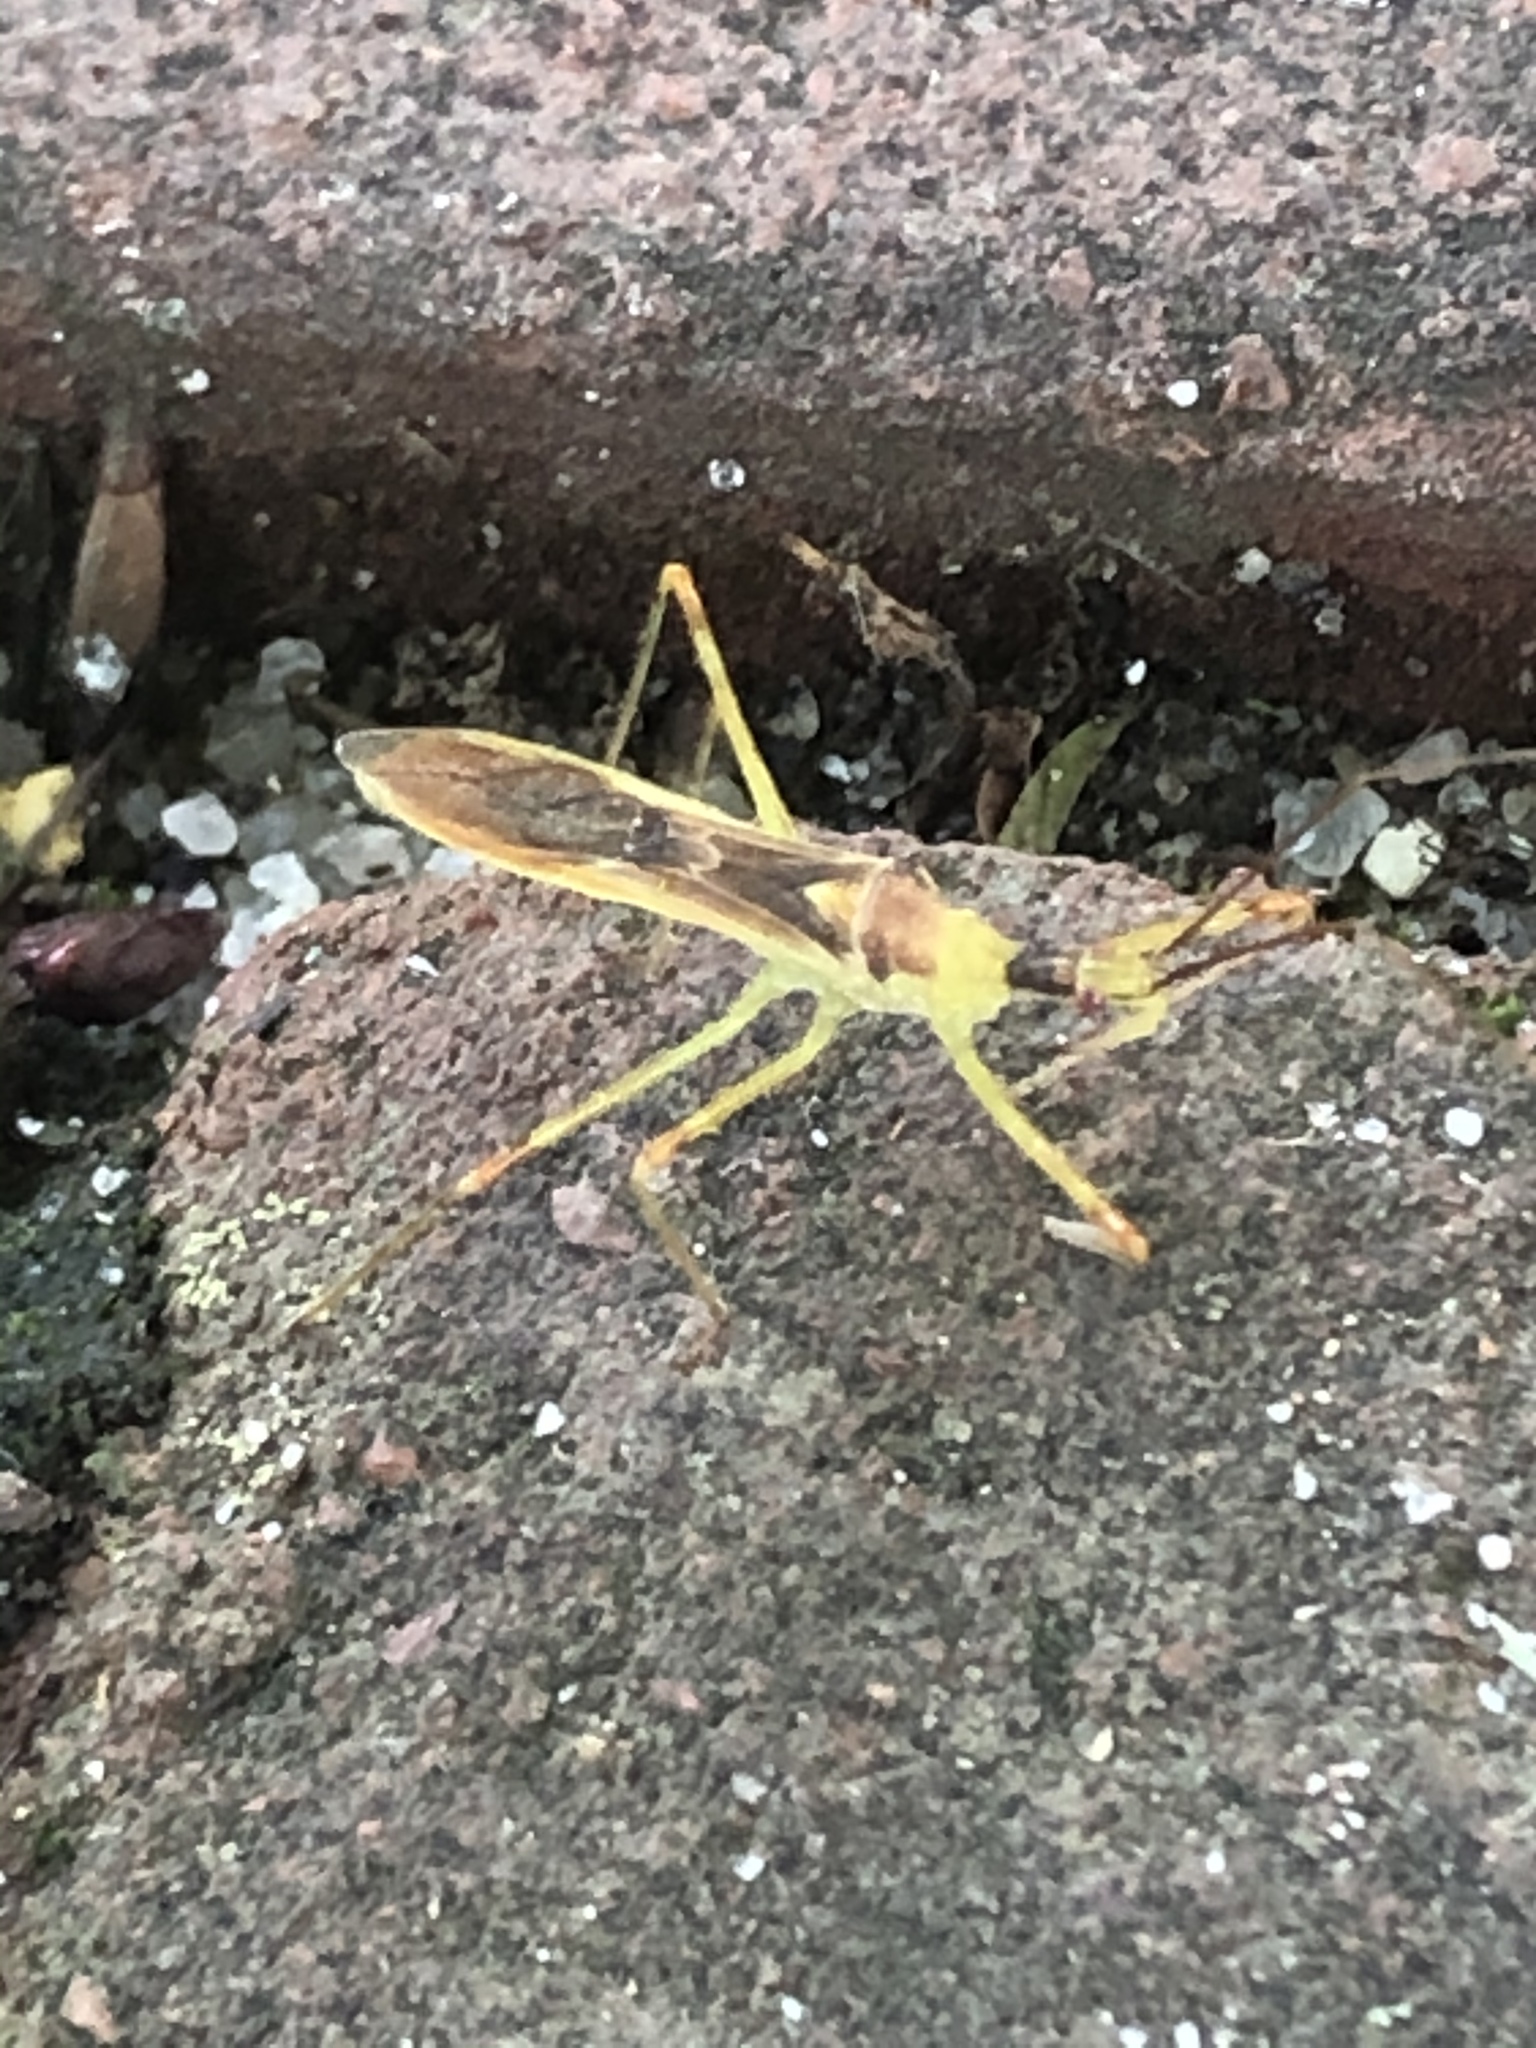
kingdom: Animalia
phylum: Arthropoda
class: Insecta
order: Hemiptera
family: Reduviidae
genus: Zelus
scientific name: Zelus luridus
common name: Pale green assassin bug
